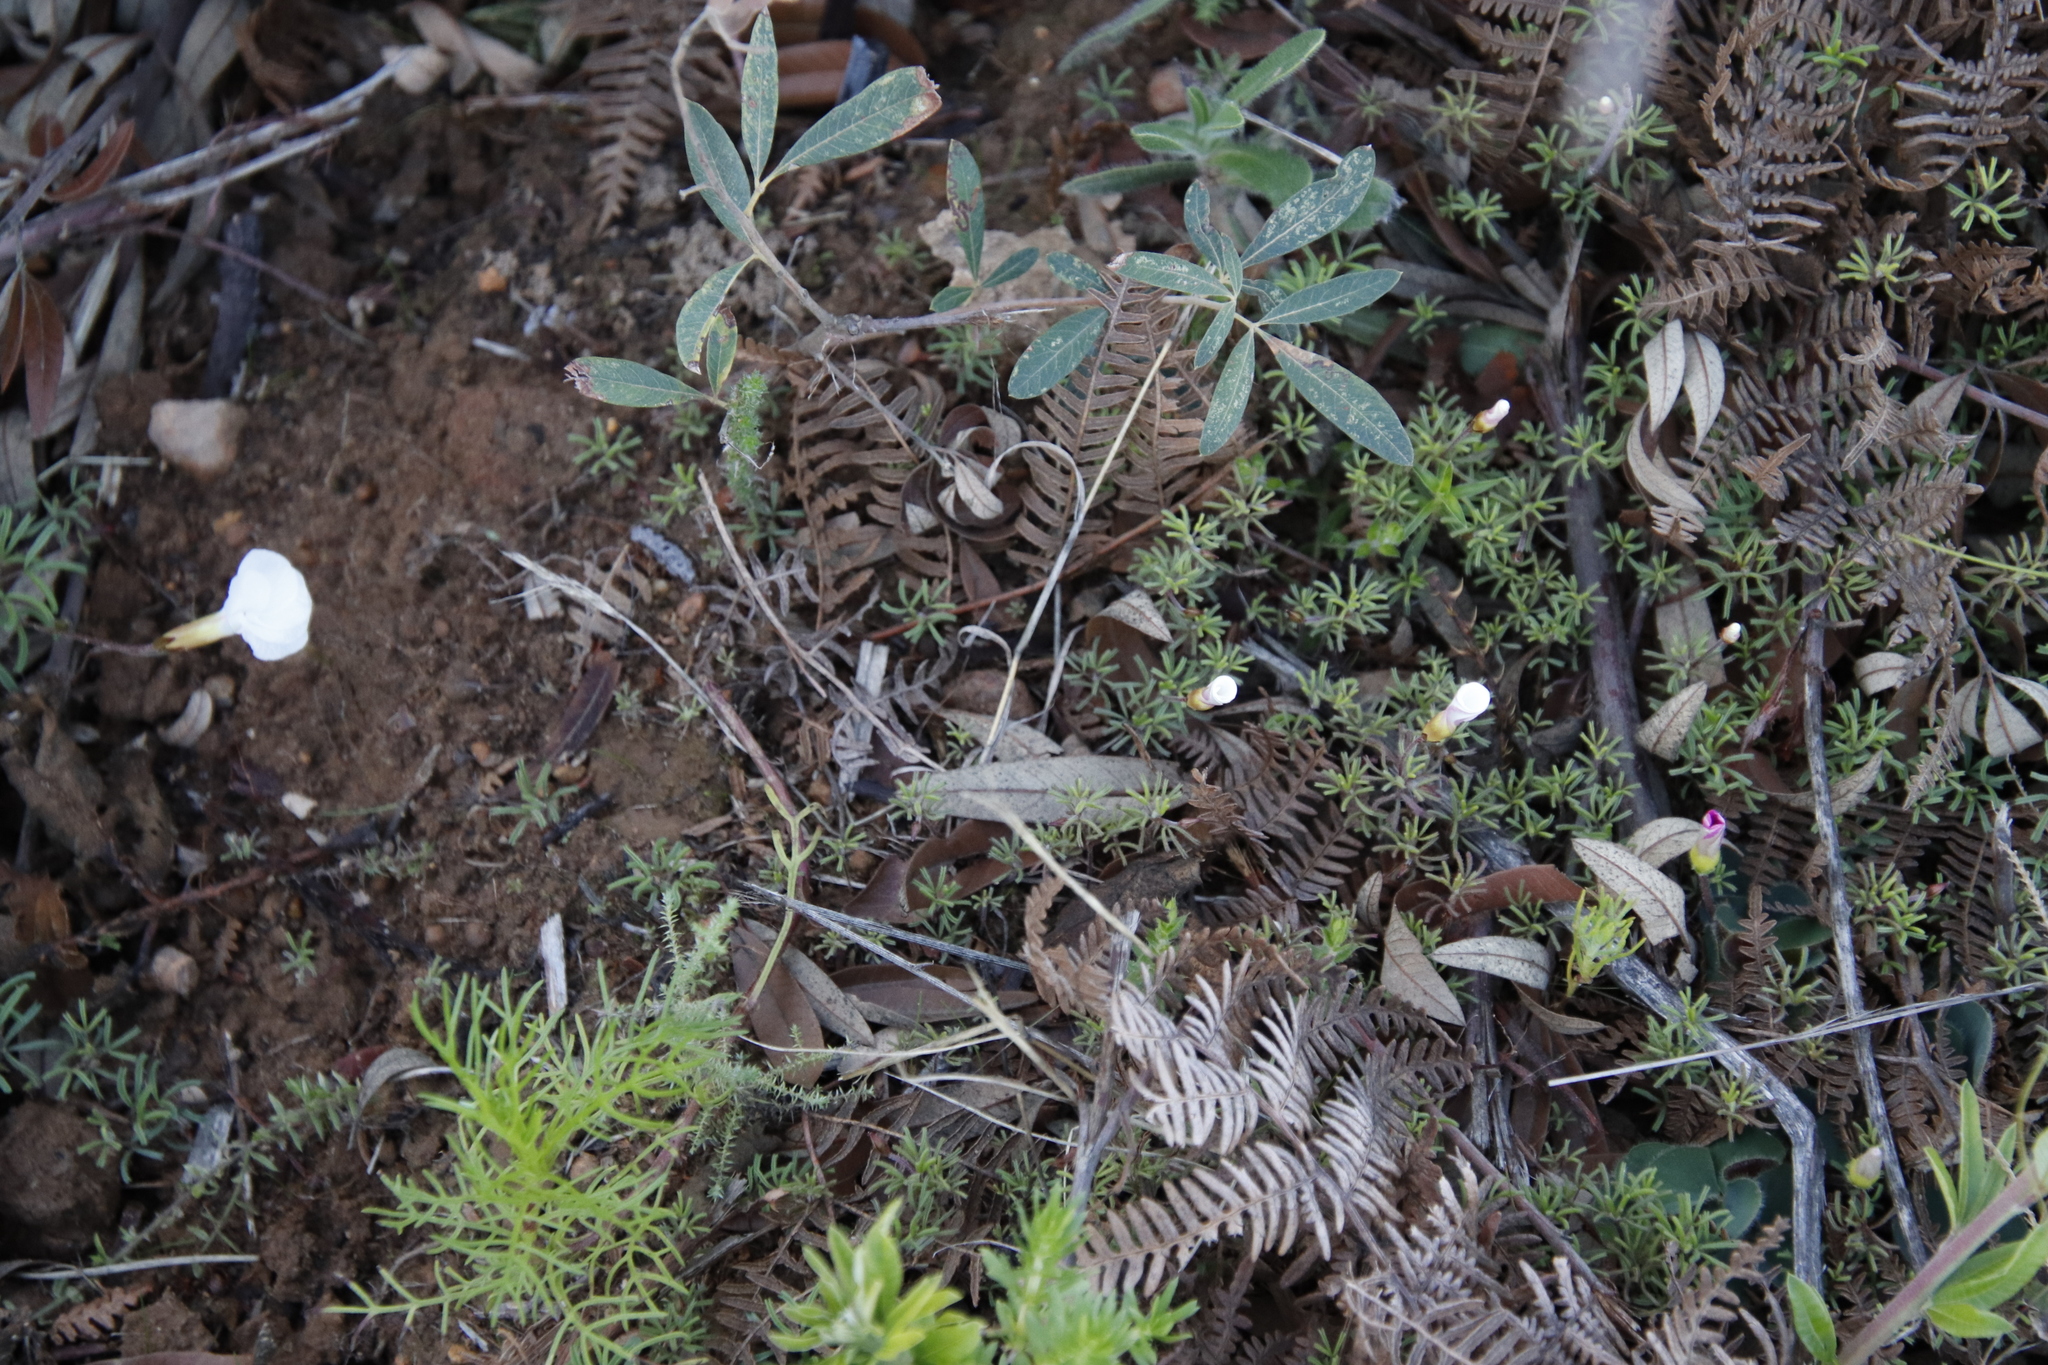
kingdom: Plantae
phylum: Tracheophyta
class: Magnoliopsida
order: Oxalidales
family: Oxalidaceae
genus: Oxalis
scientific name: Oxalis glabra
